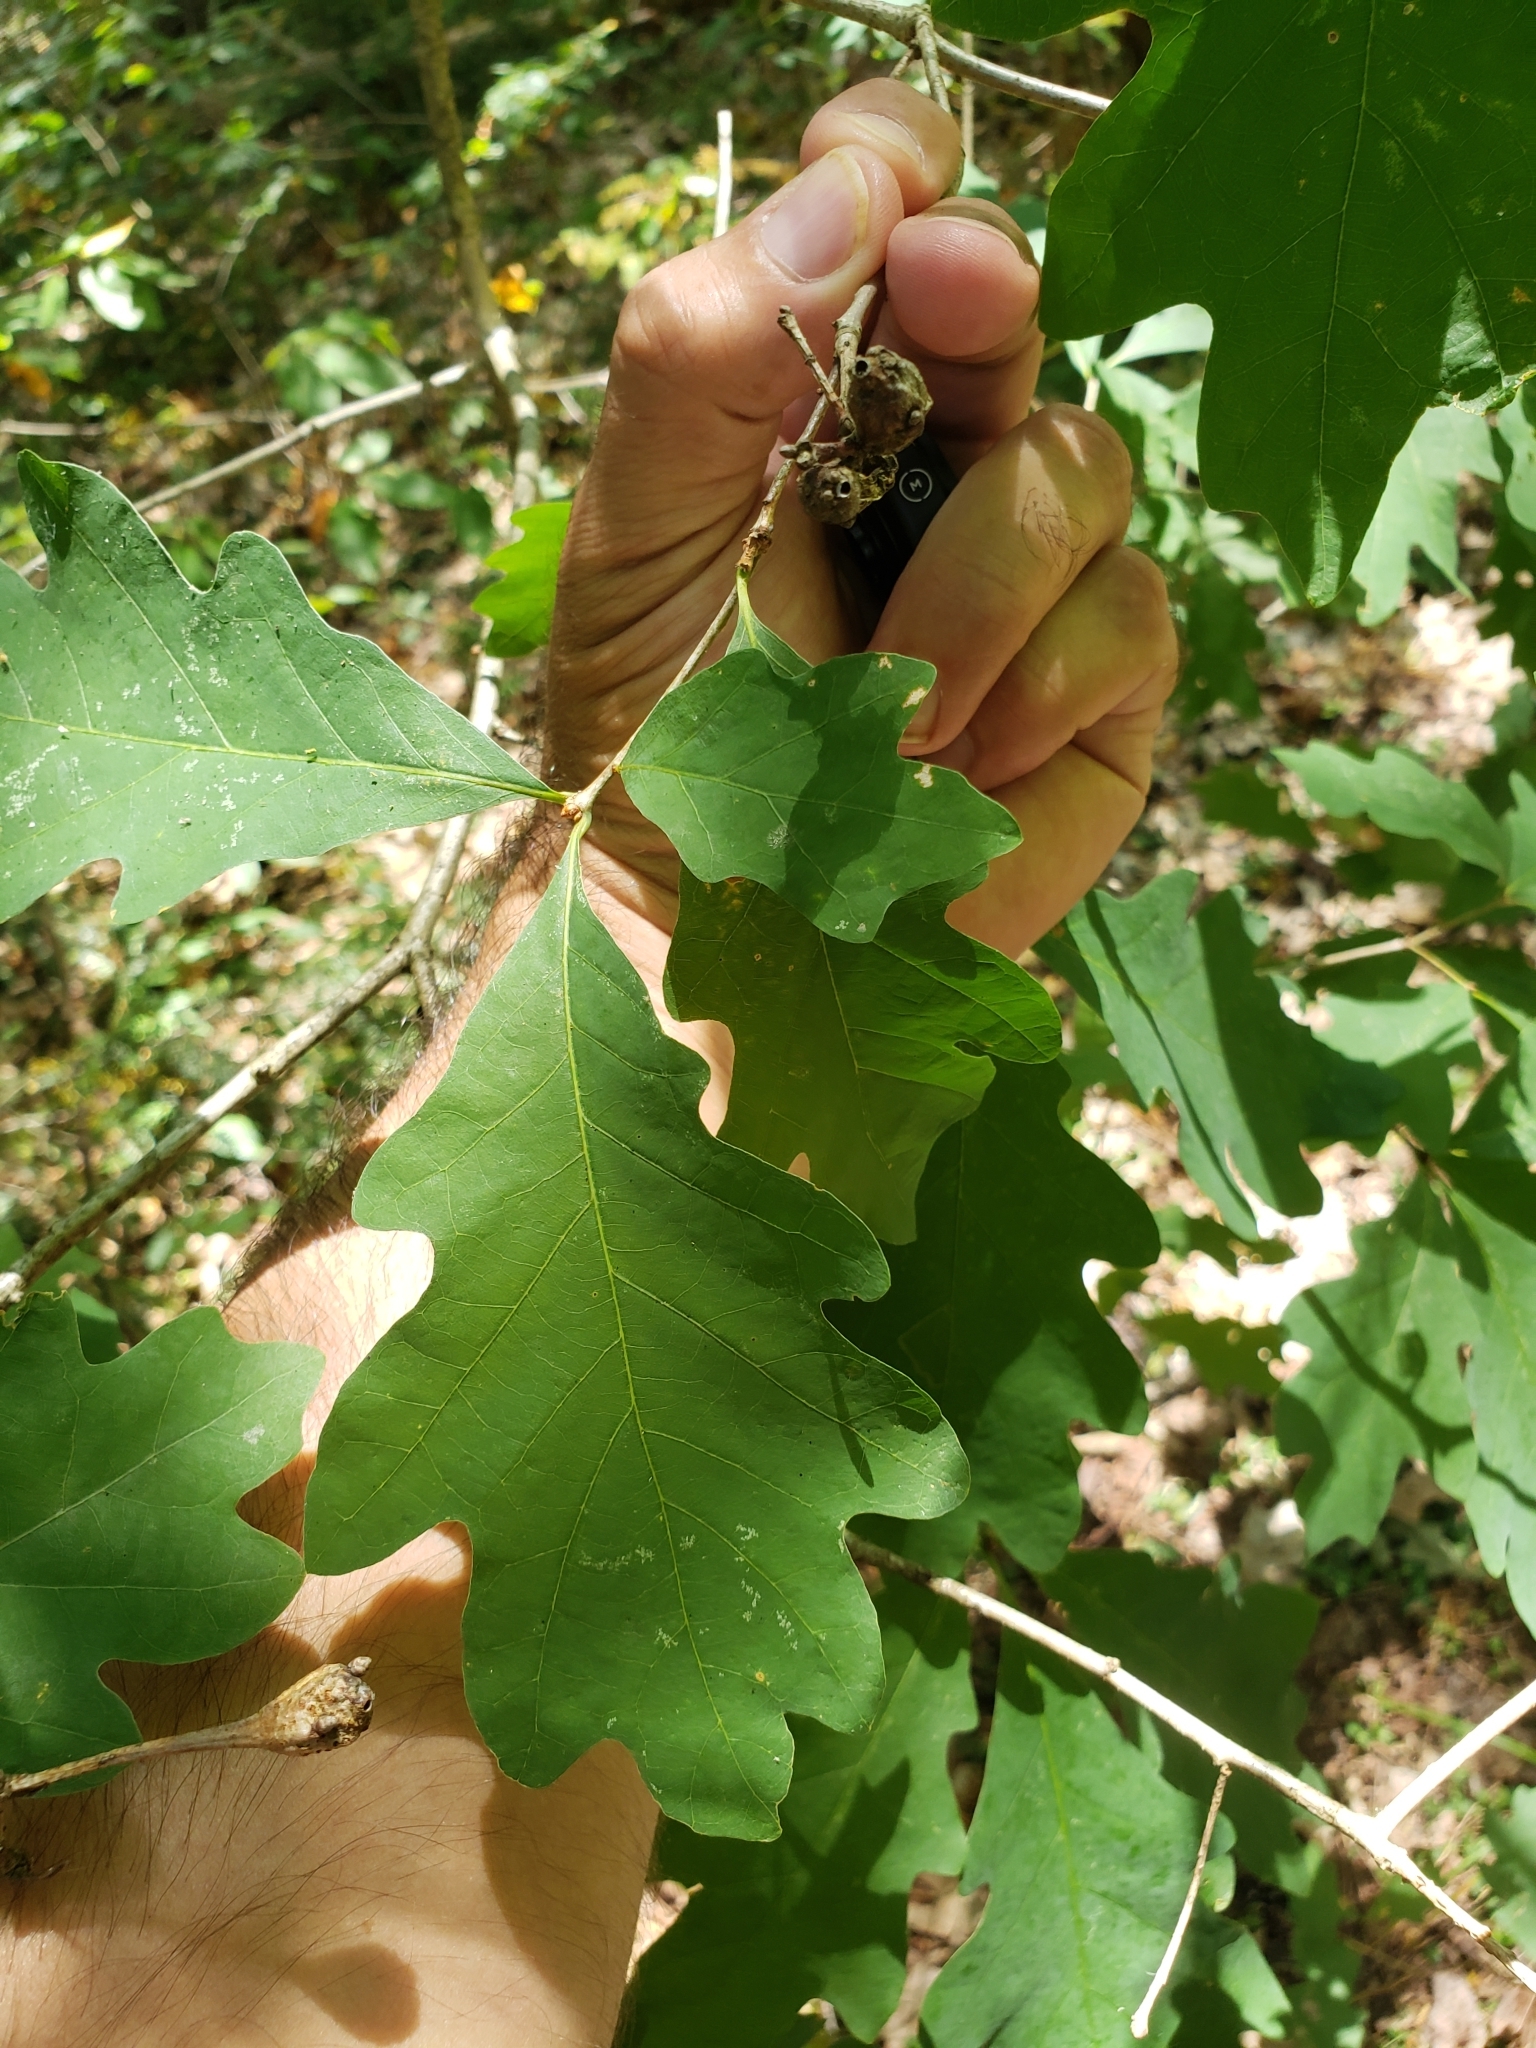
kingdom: Animalia
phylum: Arthropoda
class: Insecta
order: Hymenoptera
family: Cynipidae
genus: Neuroterus
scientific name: Neuroterus quercusbaccarum
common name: Common spangle gall
